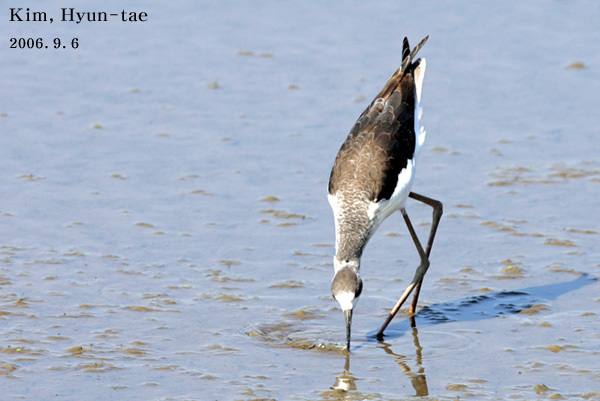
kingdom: Animalia
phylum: Chordata
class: Aves
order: Charadriiformes
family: Recurvirostridae
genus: Himantopus
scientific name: Himantopus himantopus
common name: Black-winged stilt
